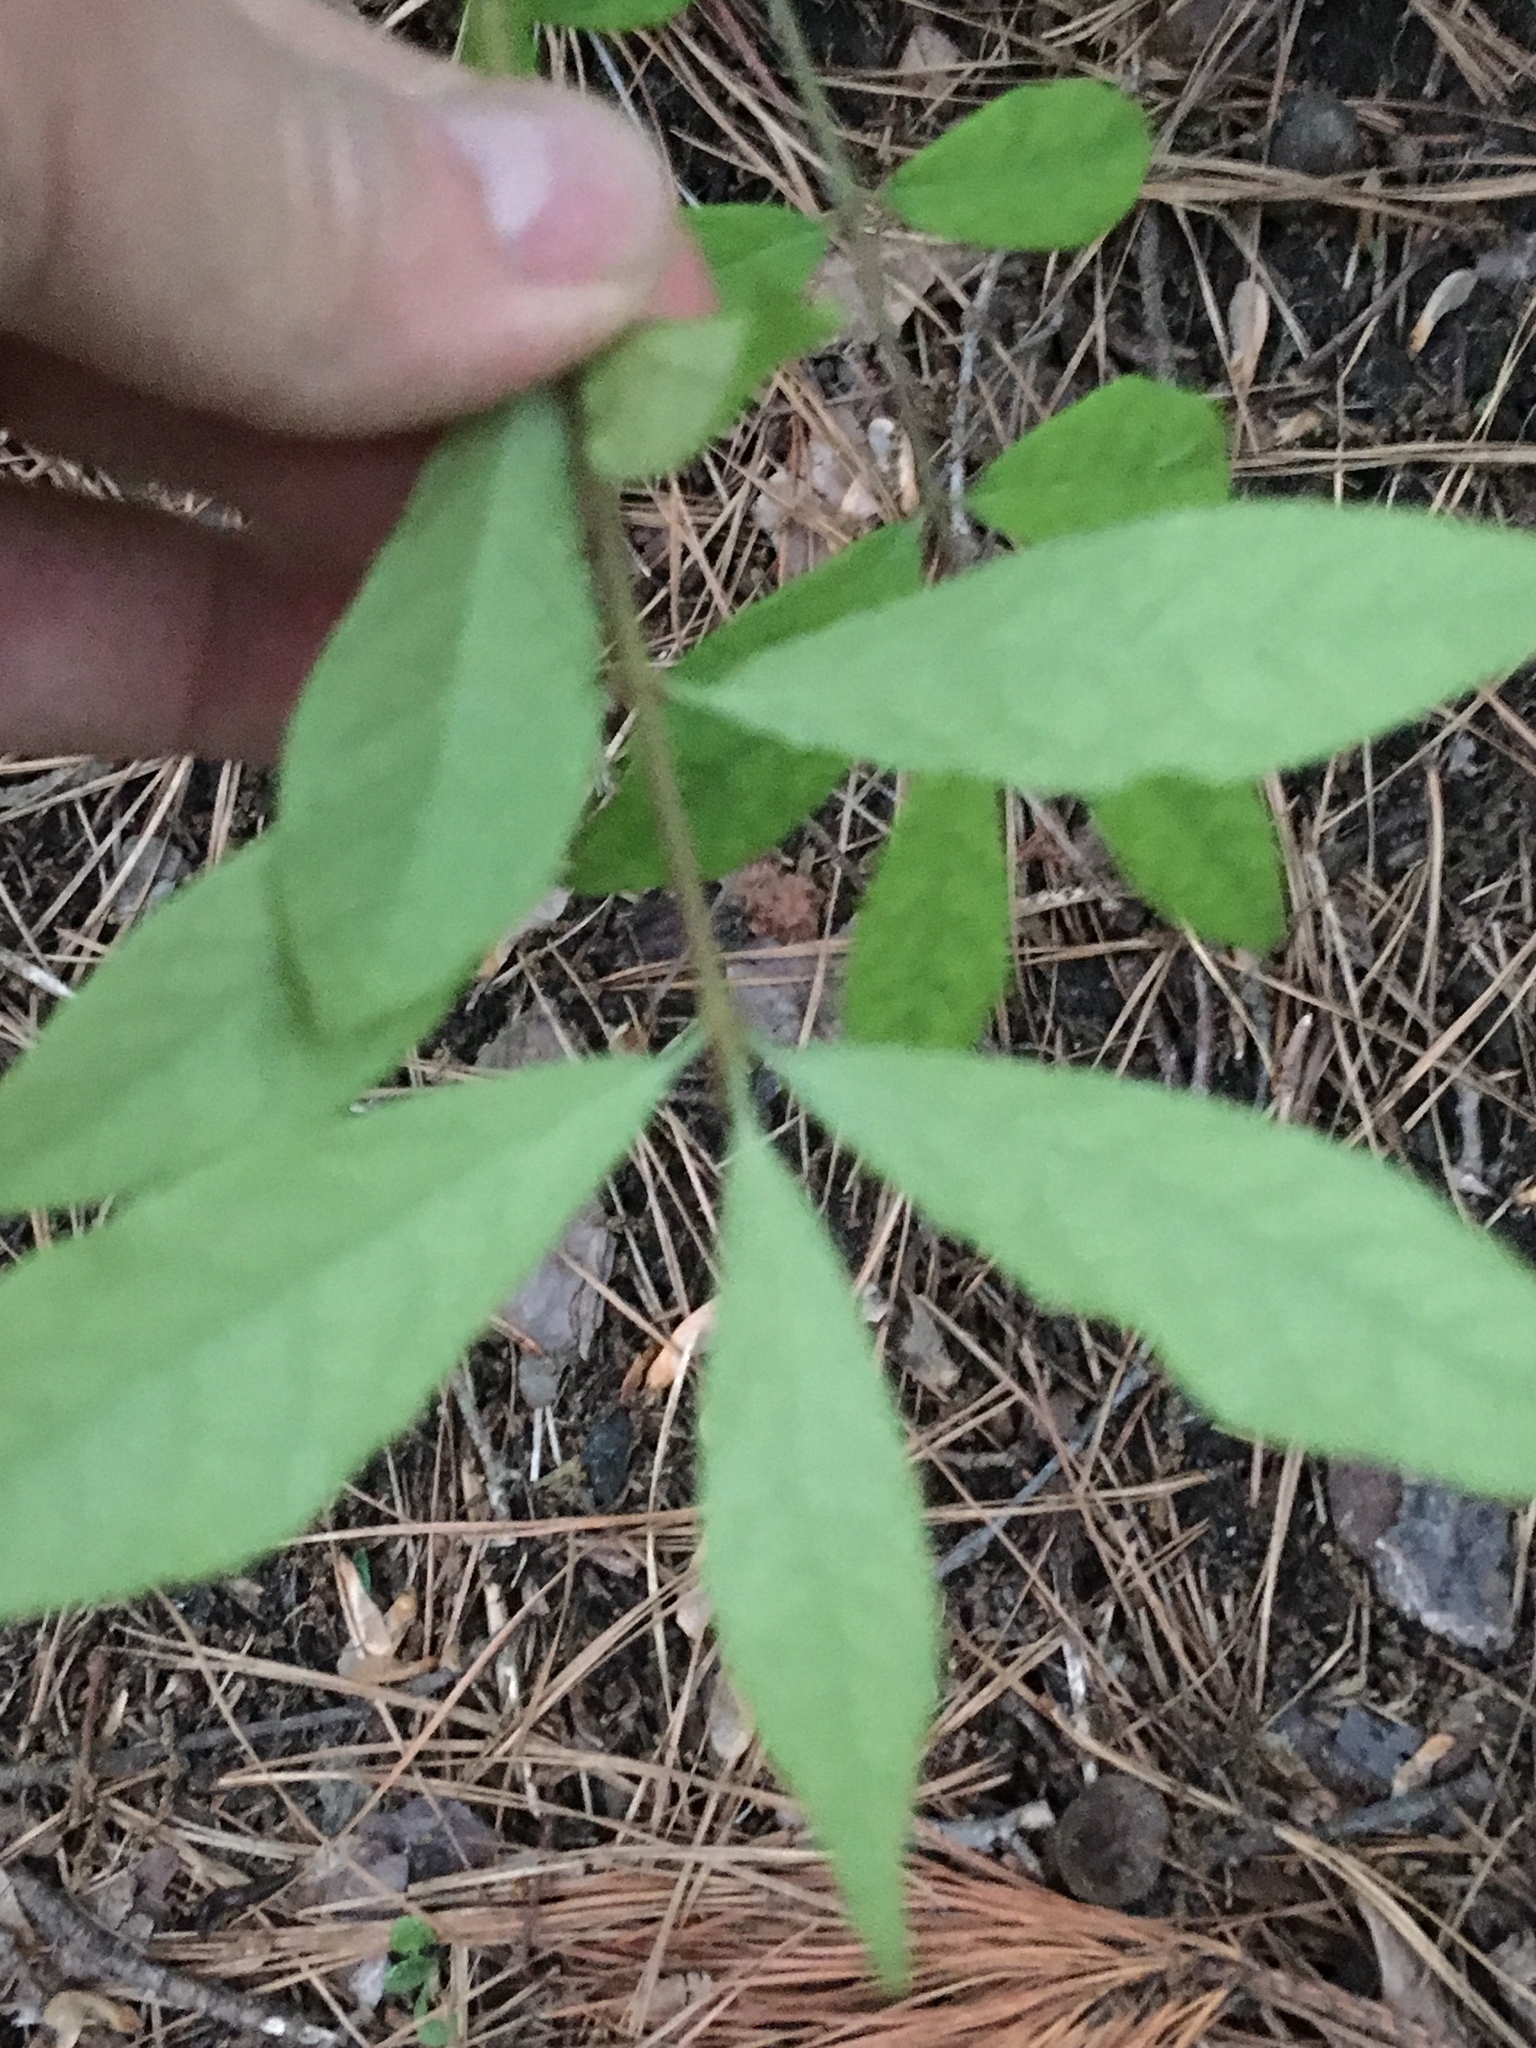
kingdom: Plantae
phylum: Tracheophyta
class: Magnoliopsida
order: Celastrales
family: Celastraceae
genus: Euonymus
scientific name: Euonymus alatus
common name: Winged euonymus
